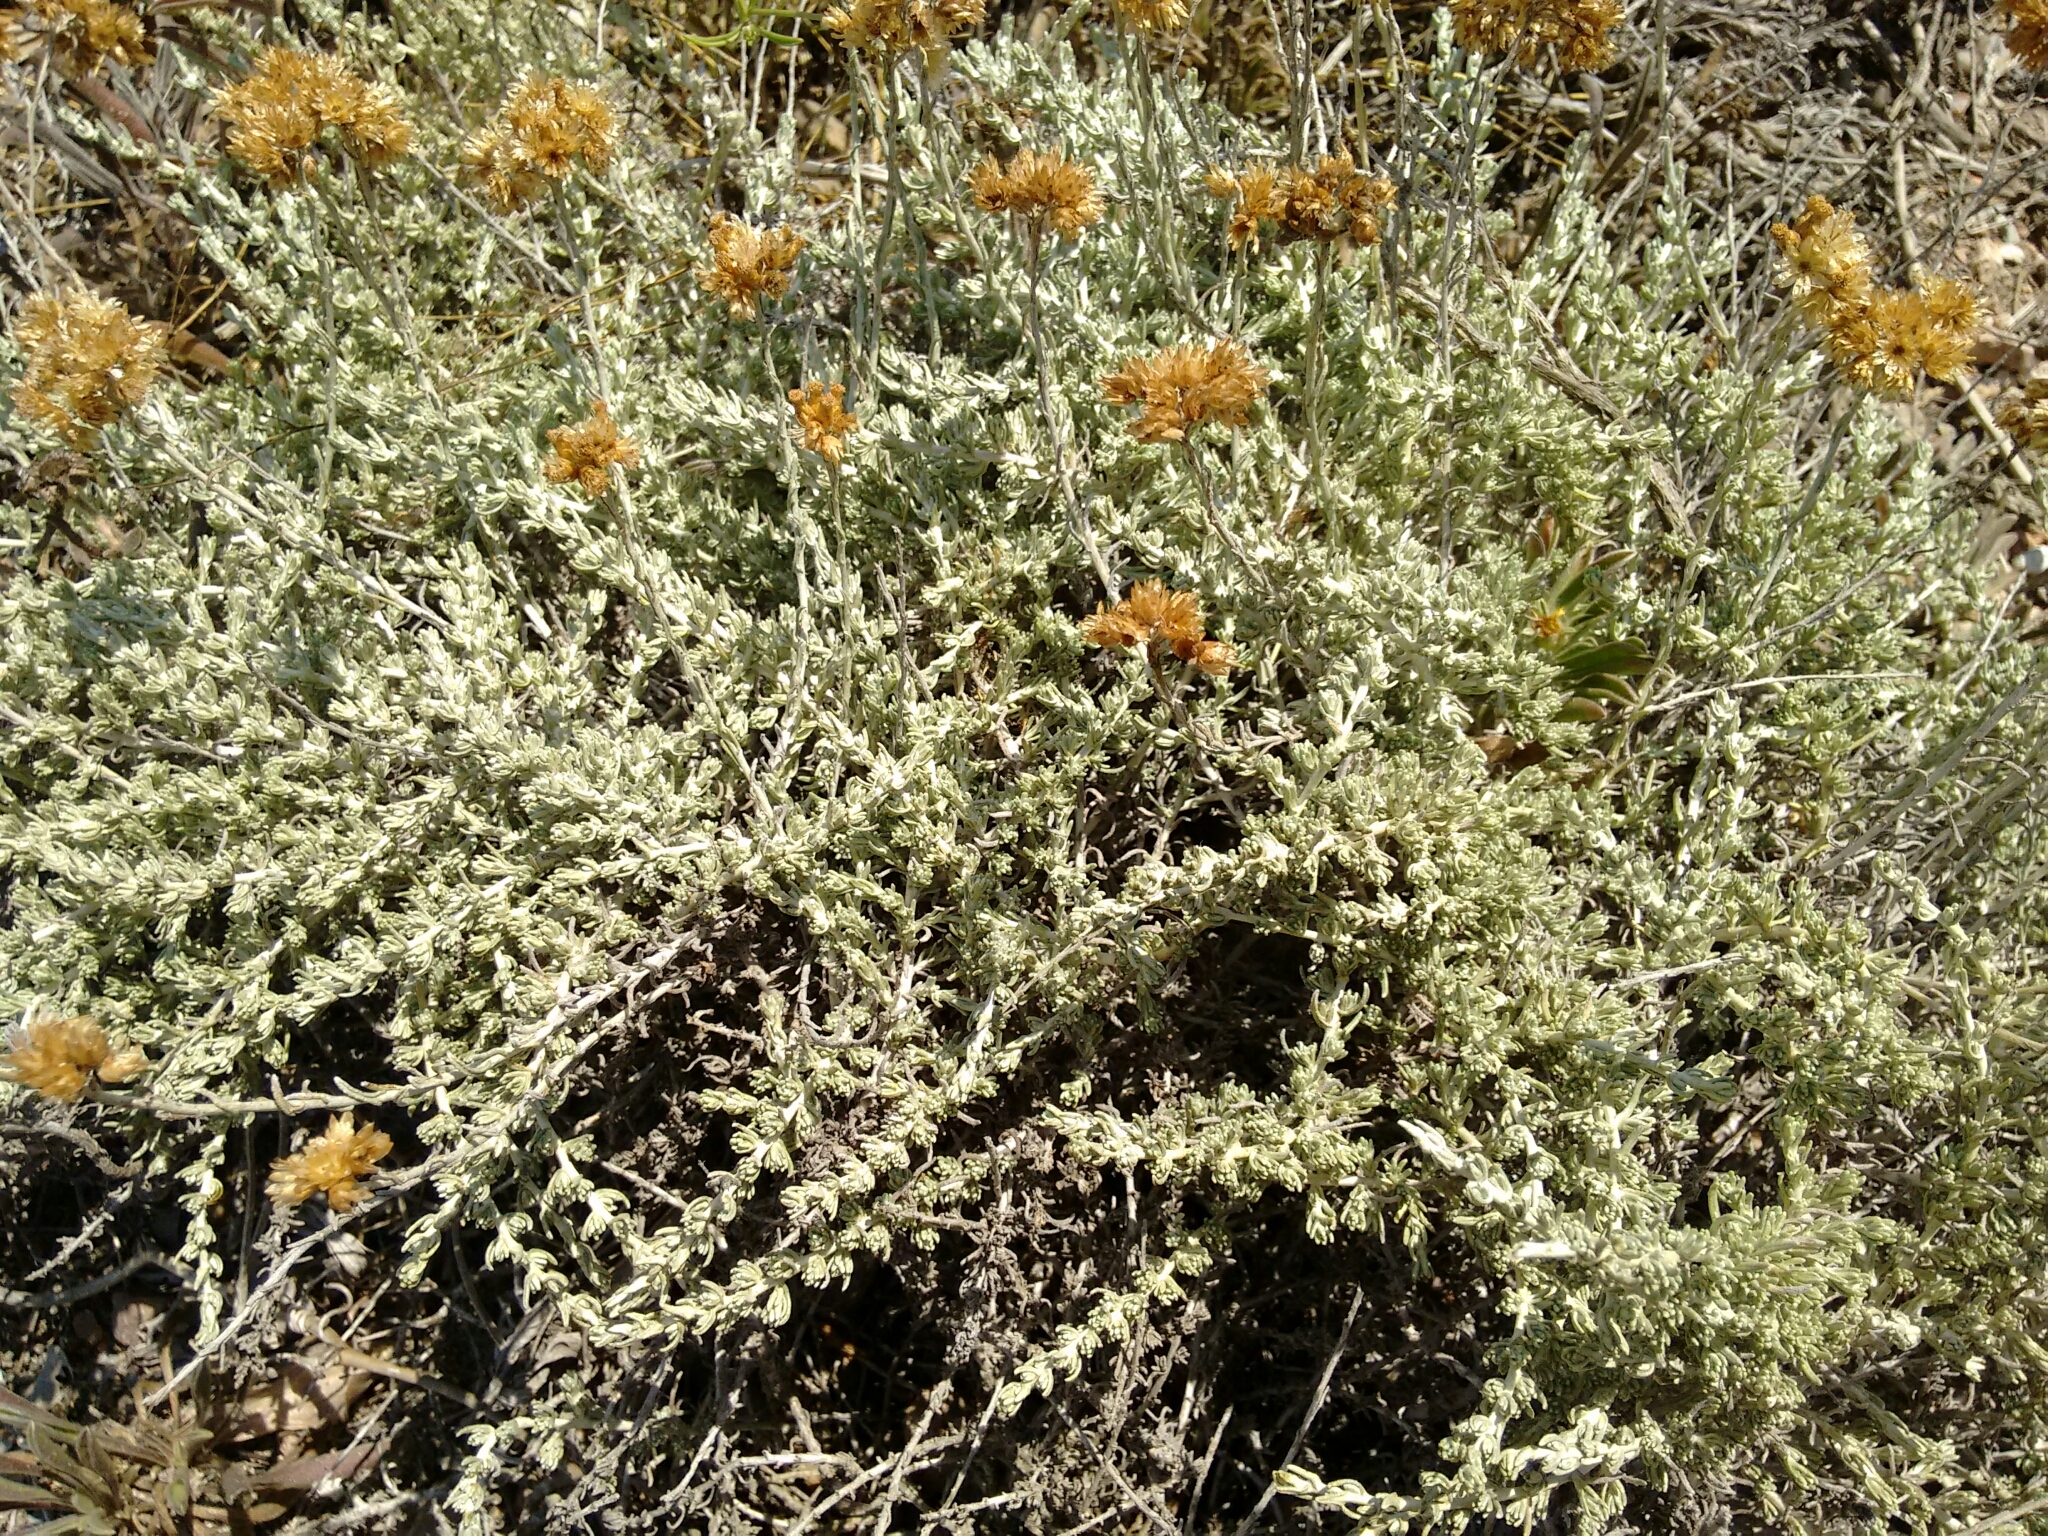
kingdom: Plantae
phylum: Tracheophyta
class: Magnoliopsida
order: Asterales
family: Asteraceae
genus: Helichrysum
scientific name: Helichrysum italicum
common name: Curryplant
